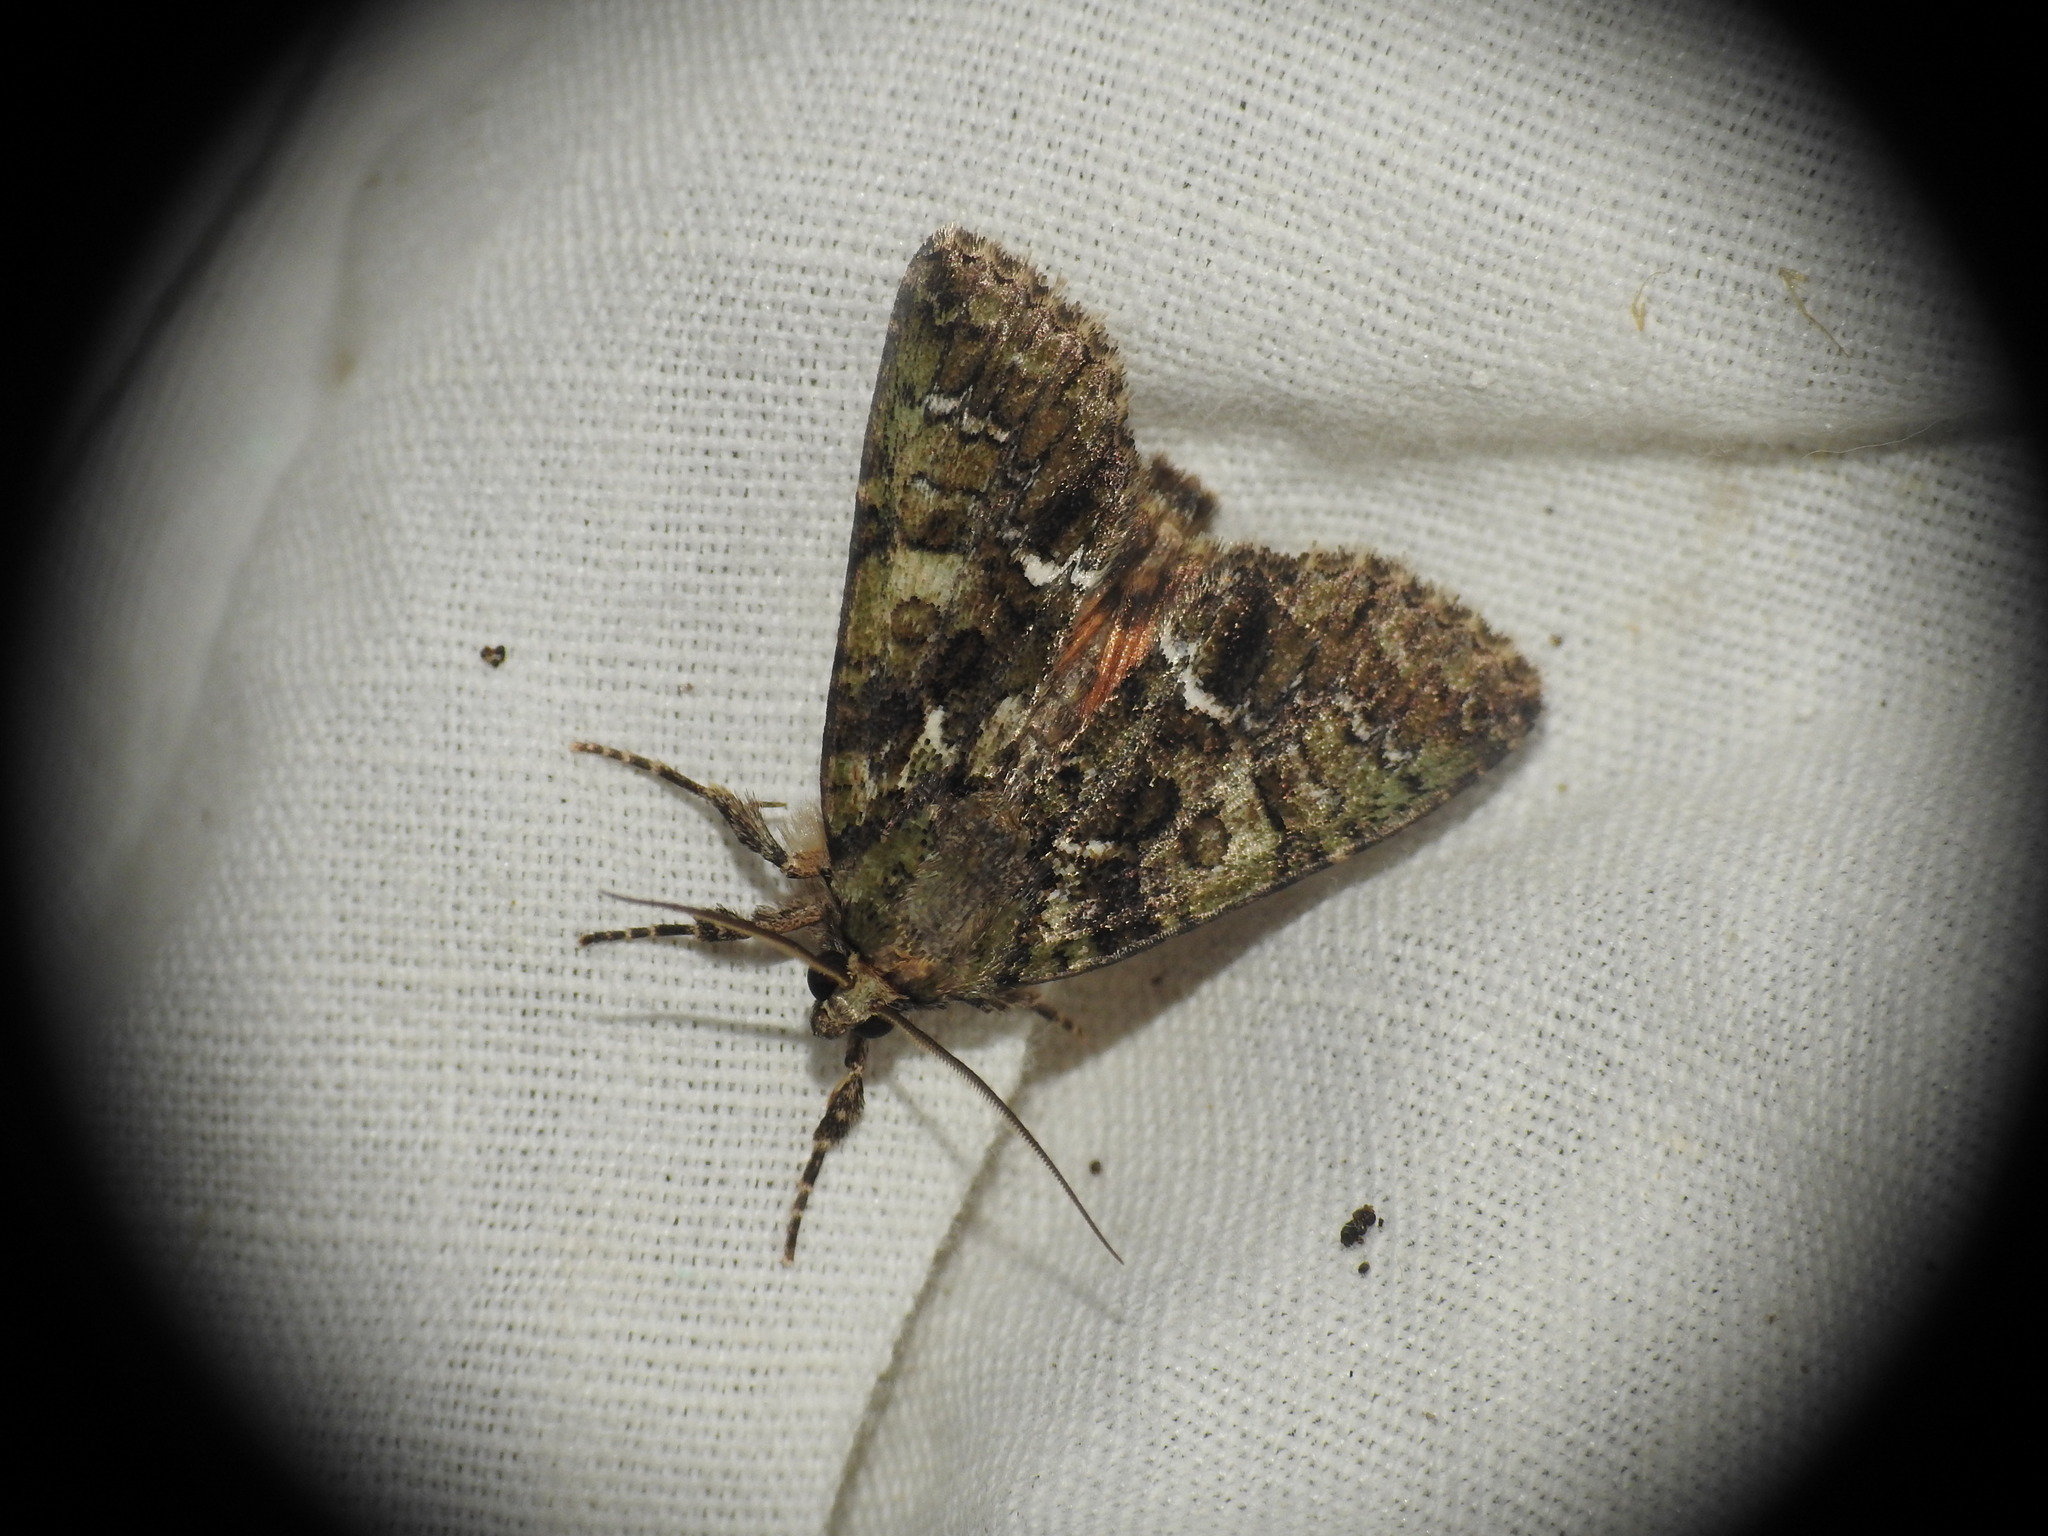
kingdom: Animalia
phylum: Arthropoda
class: Insecta
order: Lepidoptera
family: Noctuidae
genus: Polyphaenis
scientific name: Polyphaenis sericata
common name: Guernsey underwing
